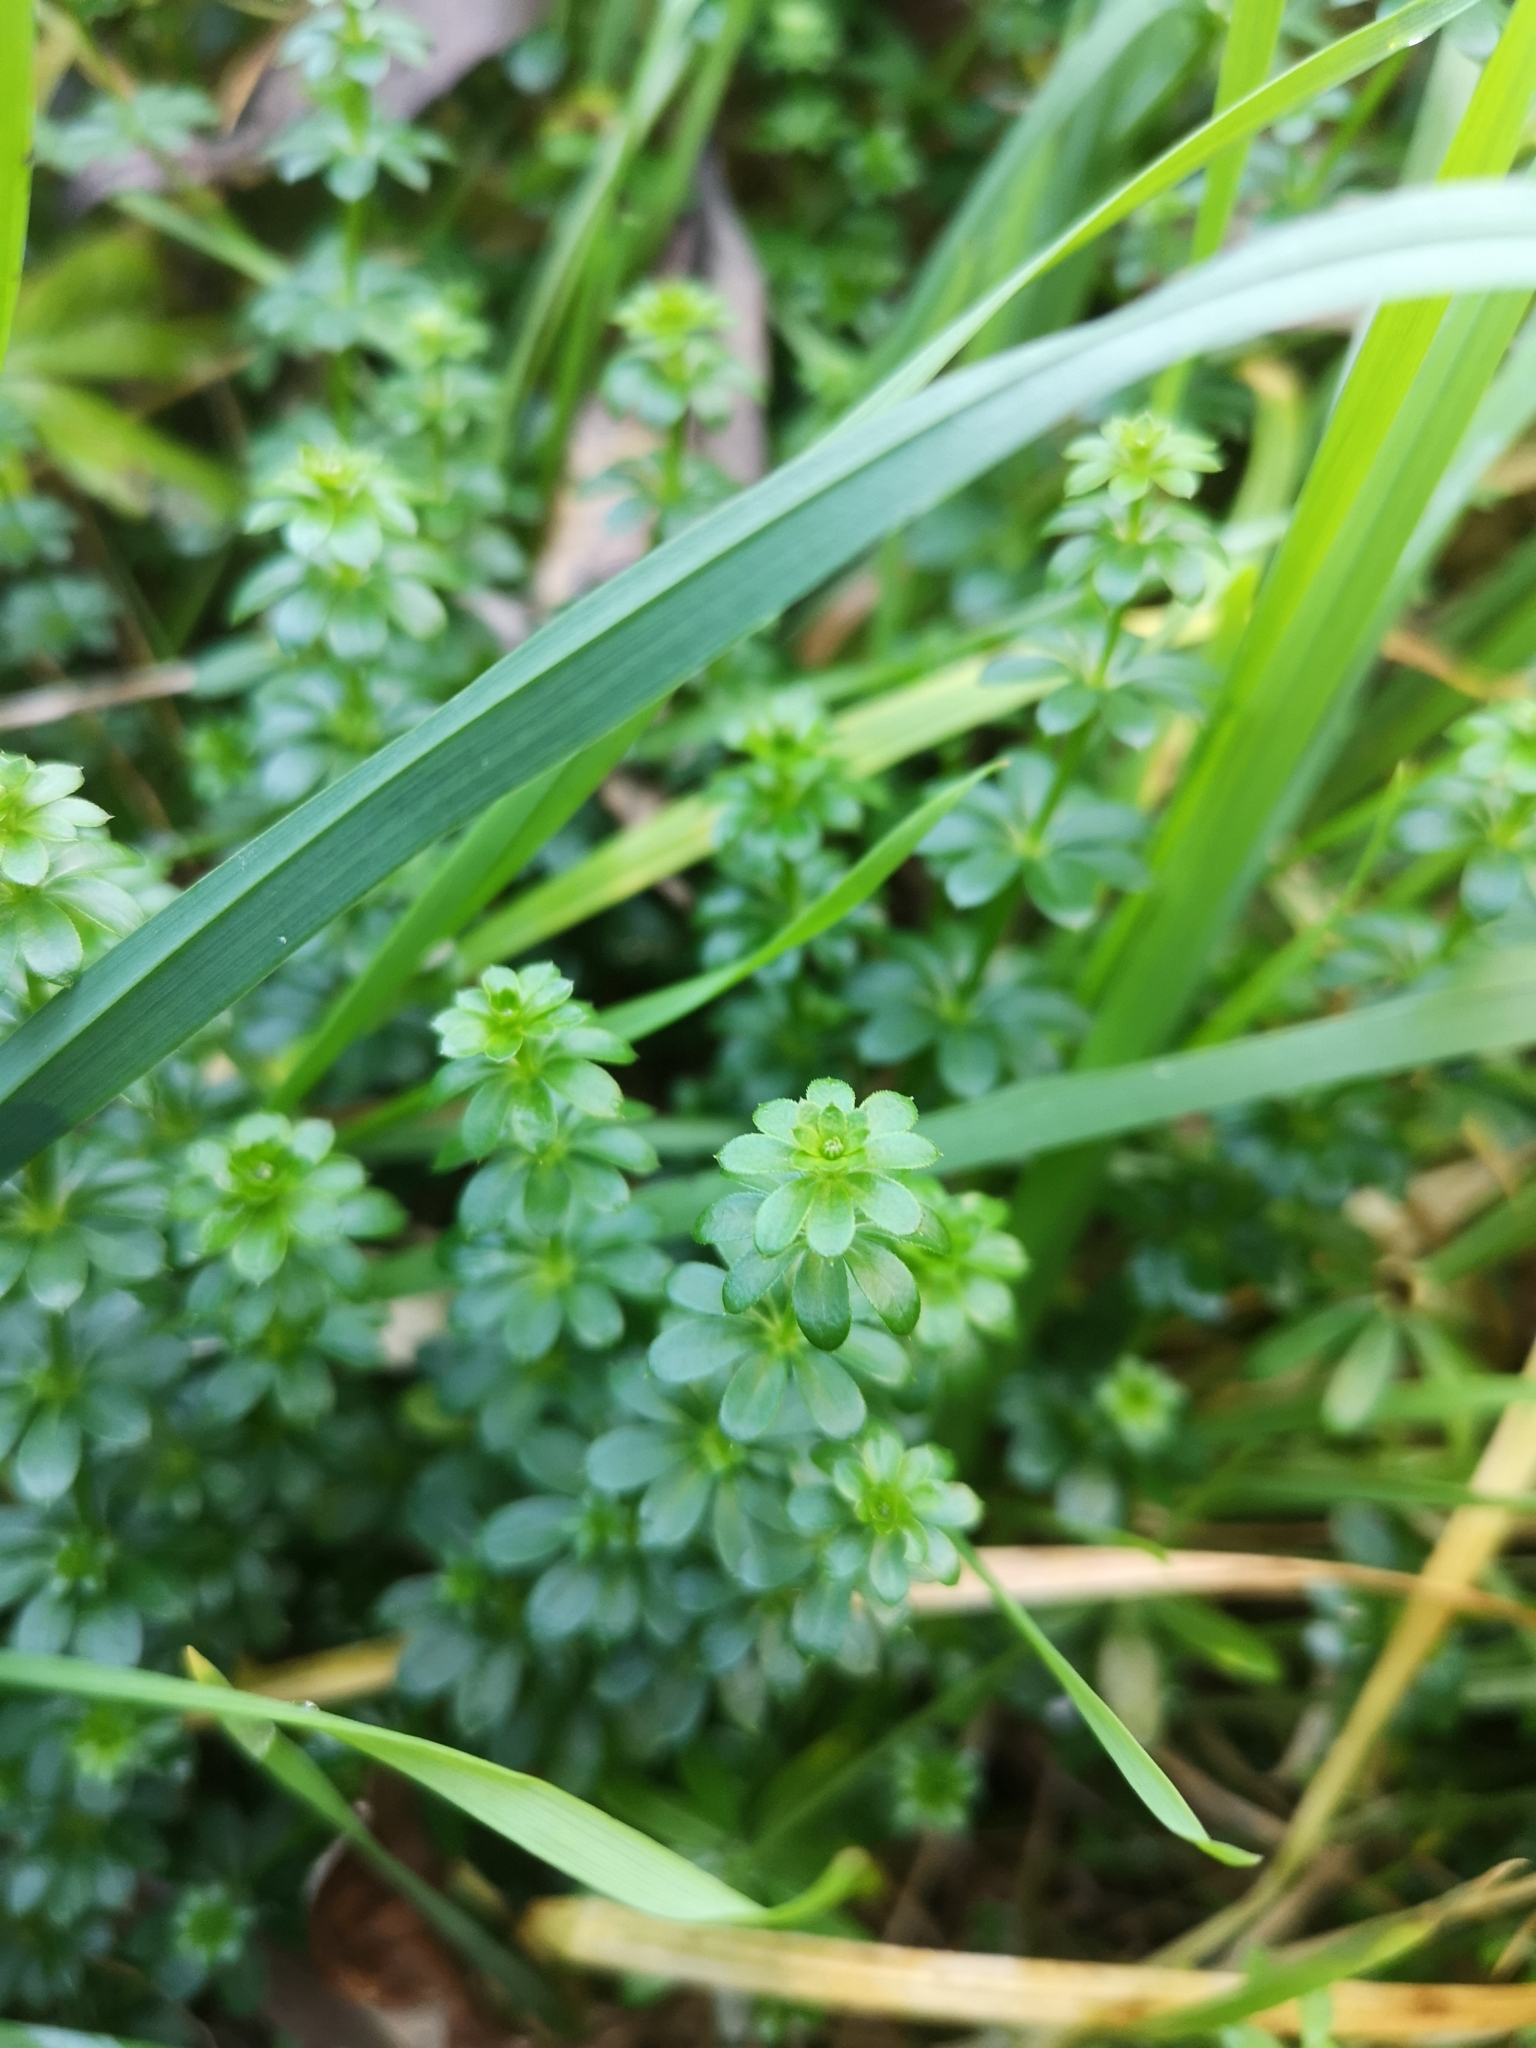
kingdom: Plantae
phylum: Tracheophyta
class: Magnoliopsida
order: Gentianales
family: Rubiaceae
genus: Galium
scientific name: Galium album
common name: White bedstraw
